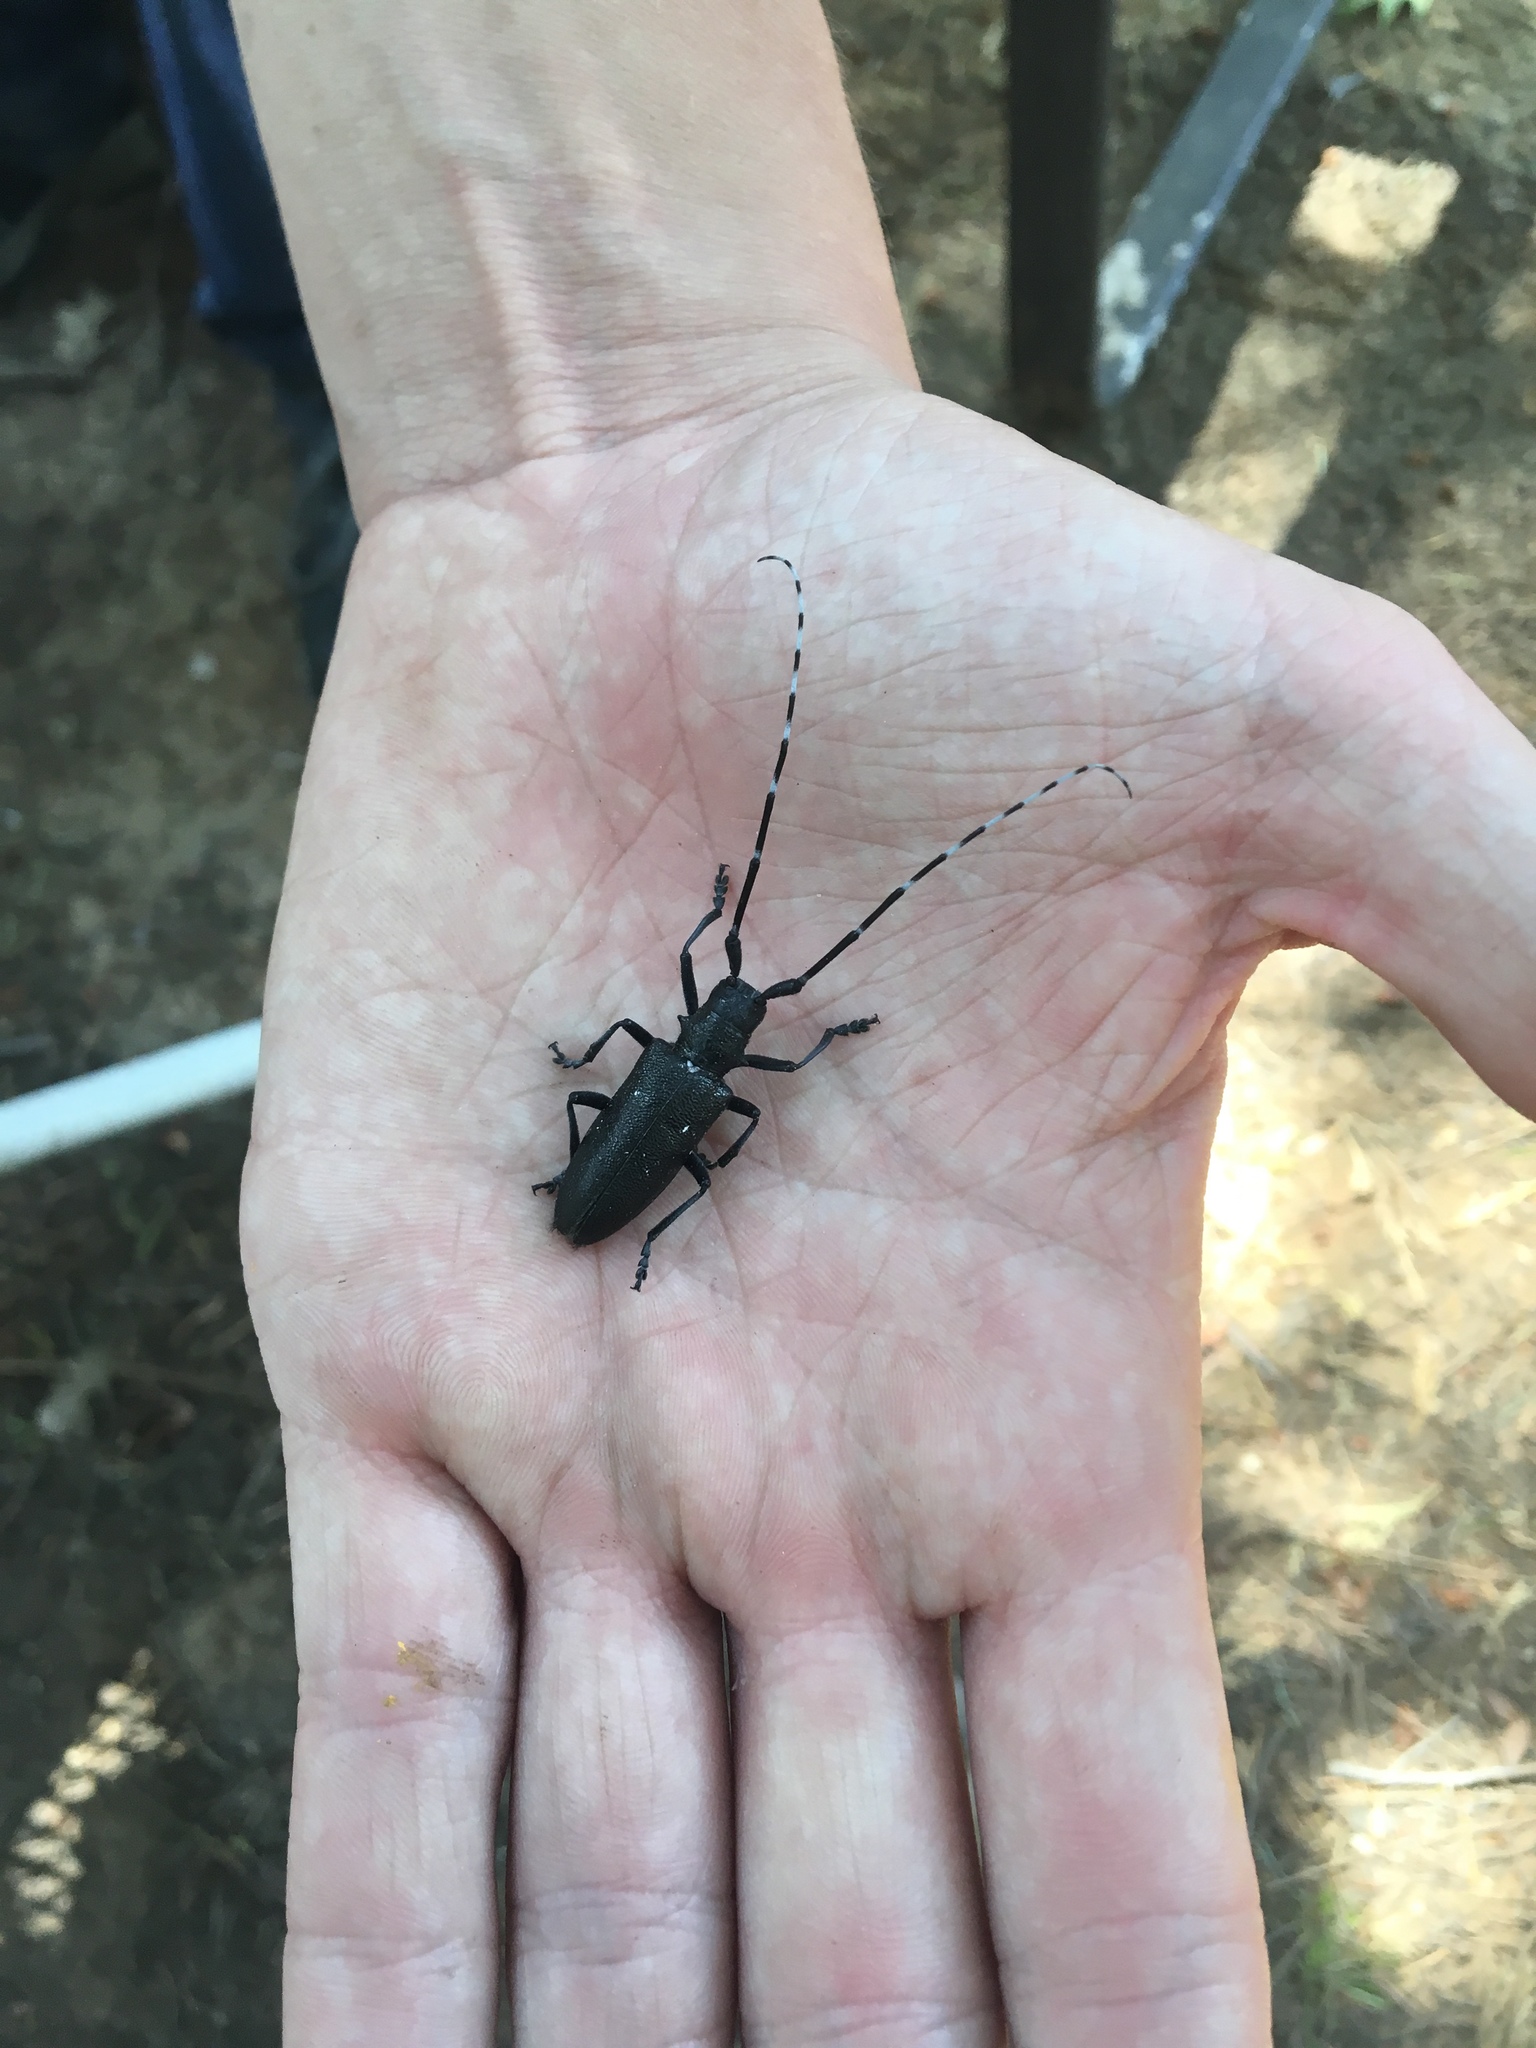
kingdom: Animalia
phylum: Arthropoda
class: Insecta
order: Coleoptera
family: Cerambycidae
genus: Monochamus
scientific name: Monochamus scutellatus
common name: White-spotted sawyer beetle
